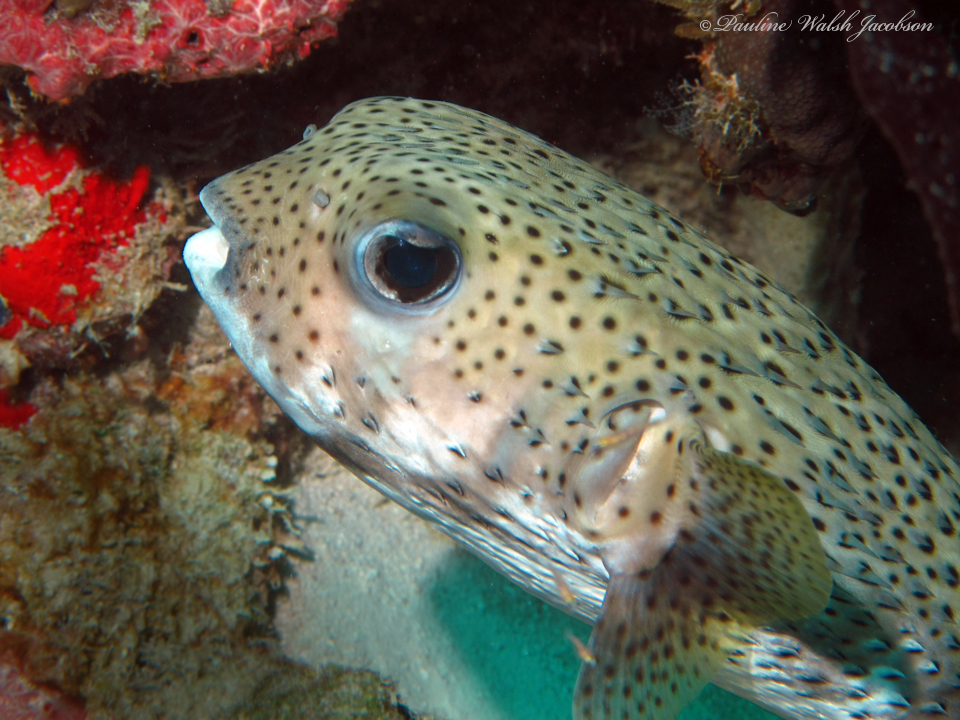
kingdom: Animalia
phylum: Chordata
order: Tetraodontiformes
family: Diodontidae
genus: Diodon
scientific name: Diodon hystrix
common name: Giant porcupinefish
